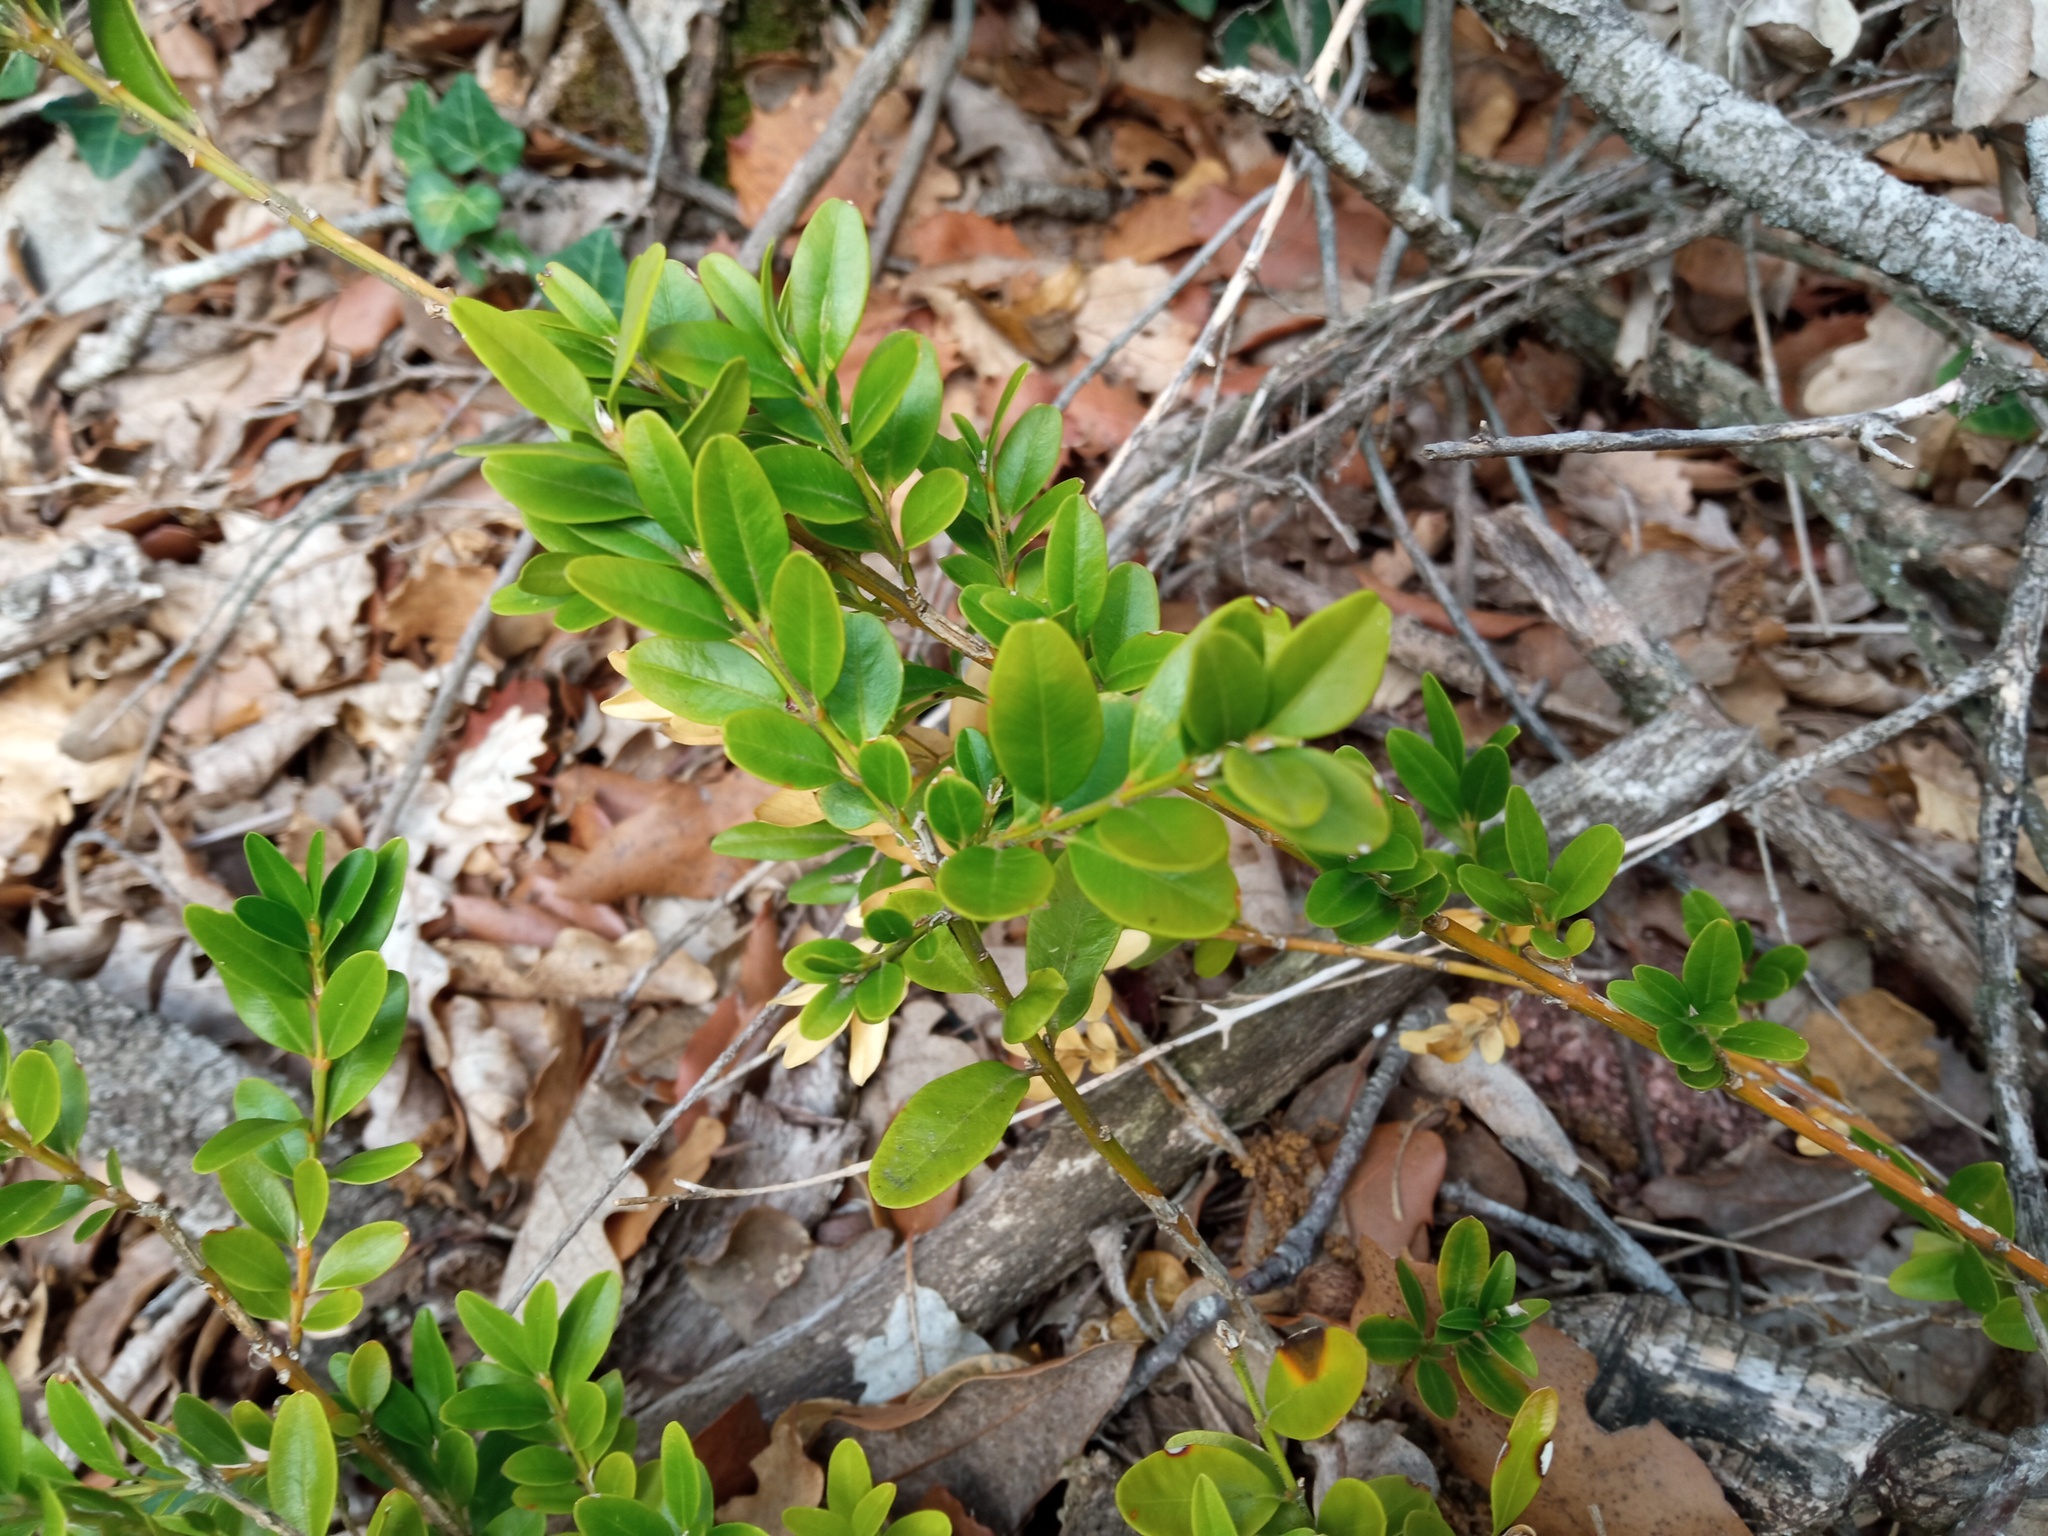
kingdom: Plantae
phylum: Tracheophyta
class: Magnoliopsida
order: Buxales
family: Buxaceae
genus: Buxus
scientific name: Buxus sempervirens
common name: Box
